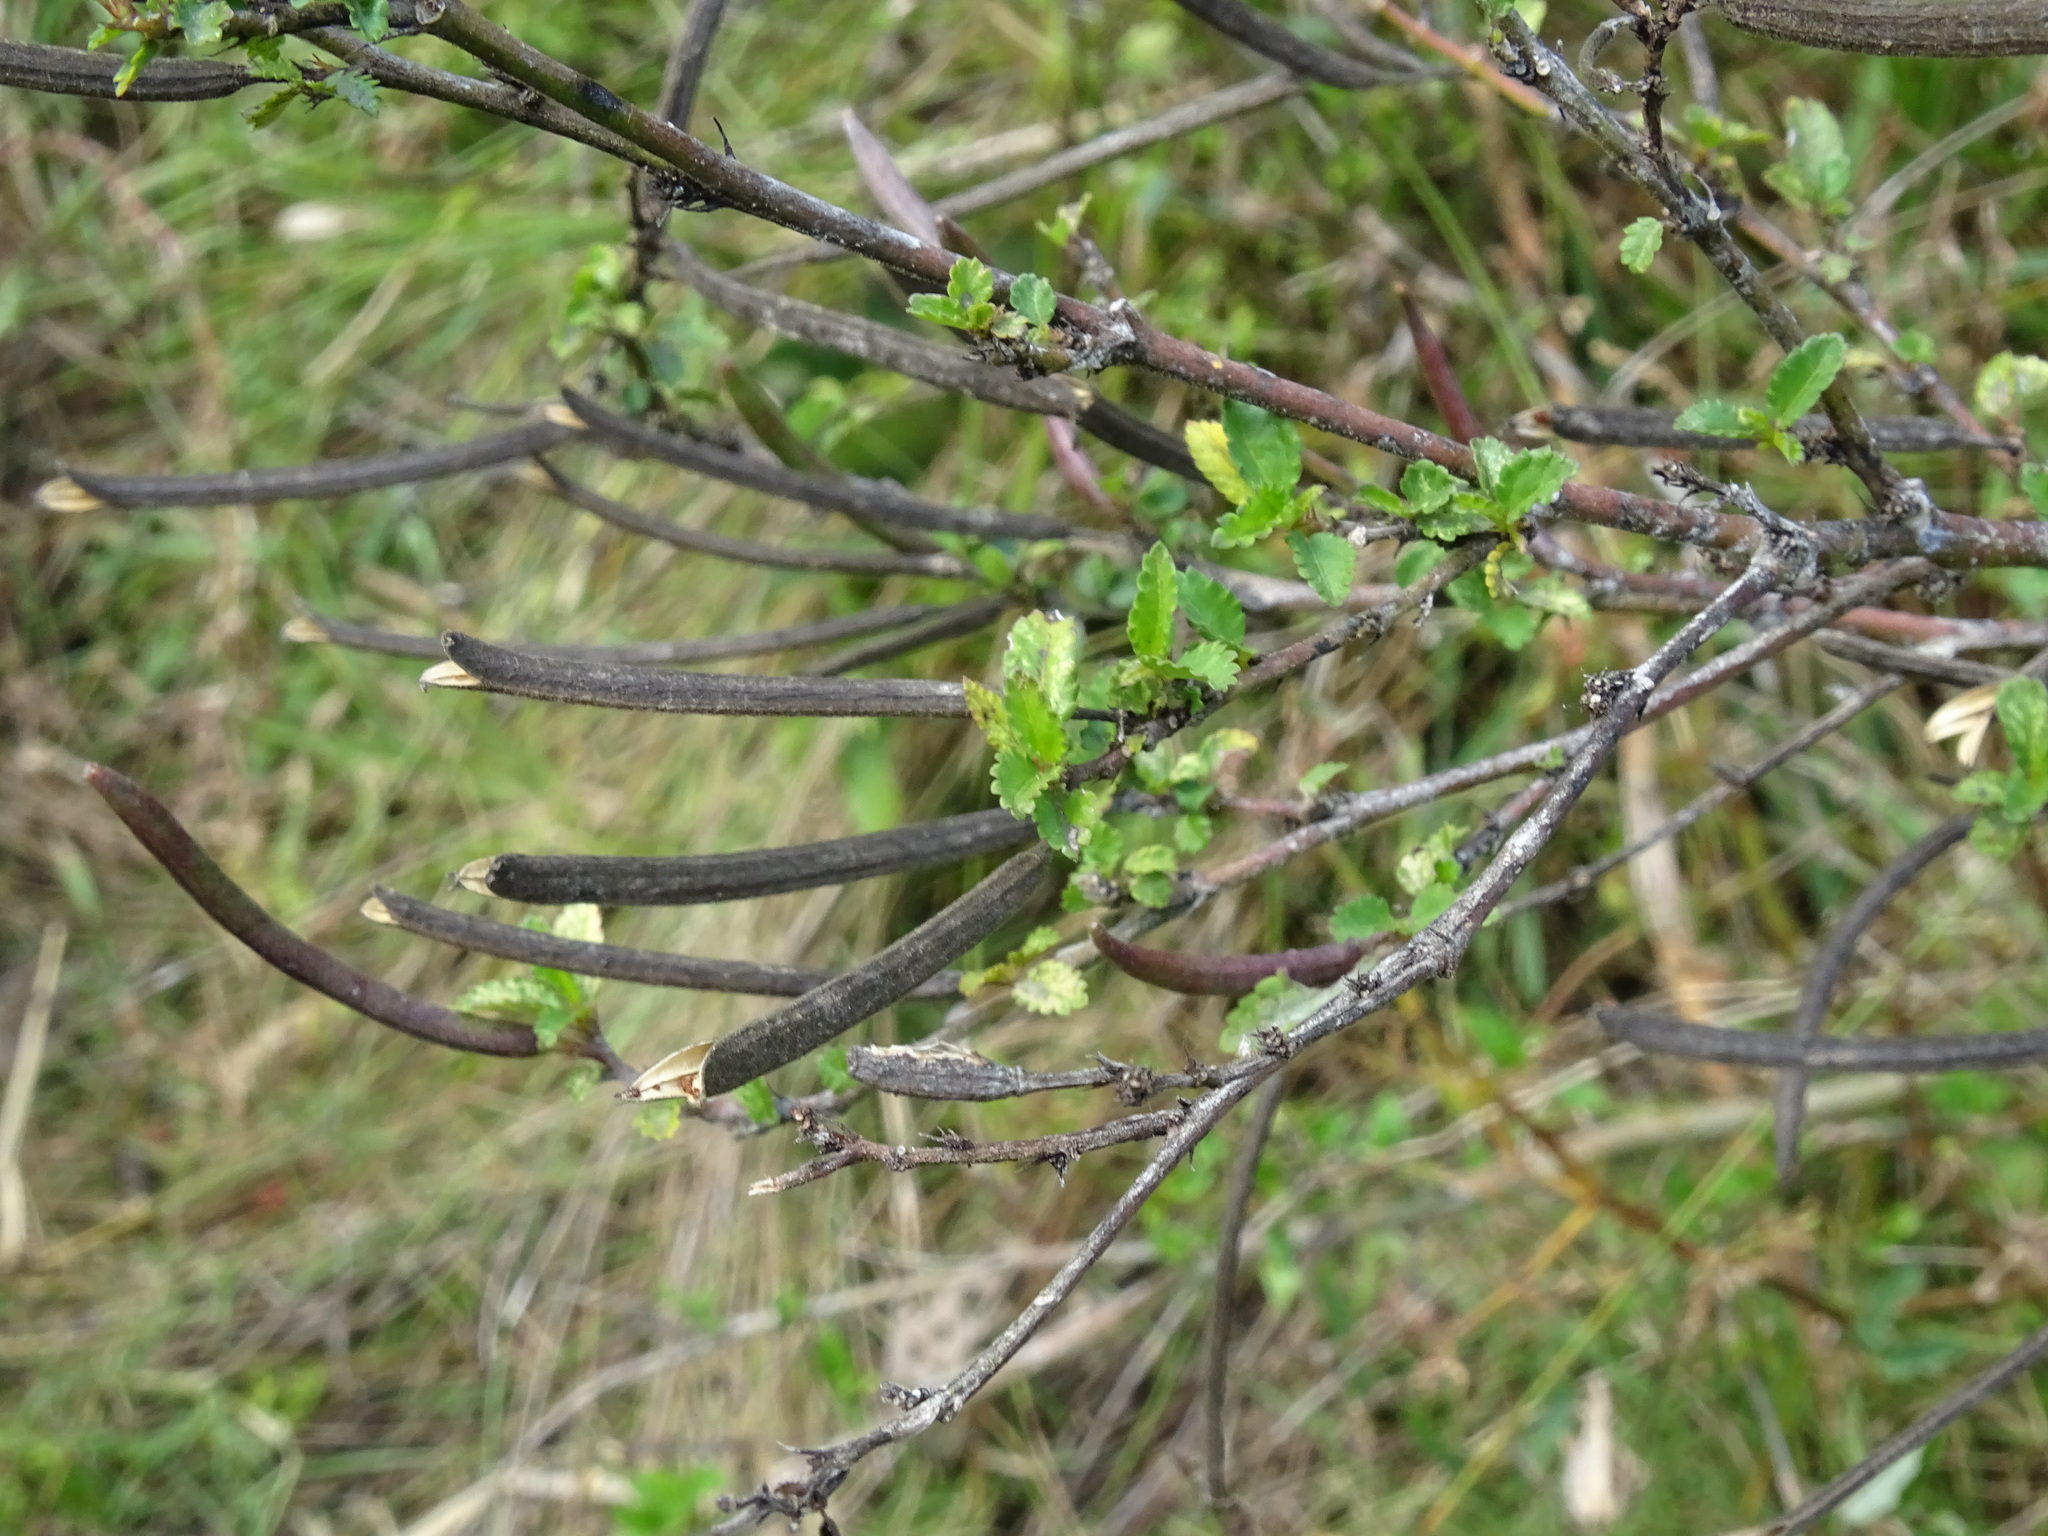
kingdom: Plantae
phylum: Tracheophyta
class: Magnoliopsida
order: Malvales
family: Malvaceae
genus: Corchorus
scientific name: Corchorus siliquosus
